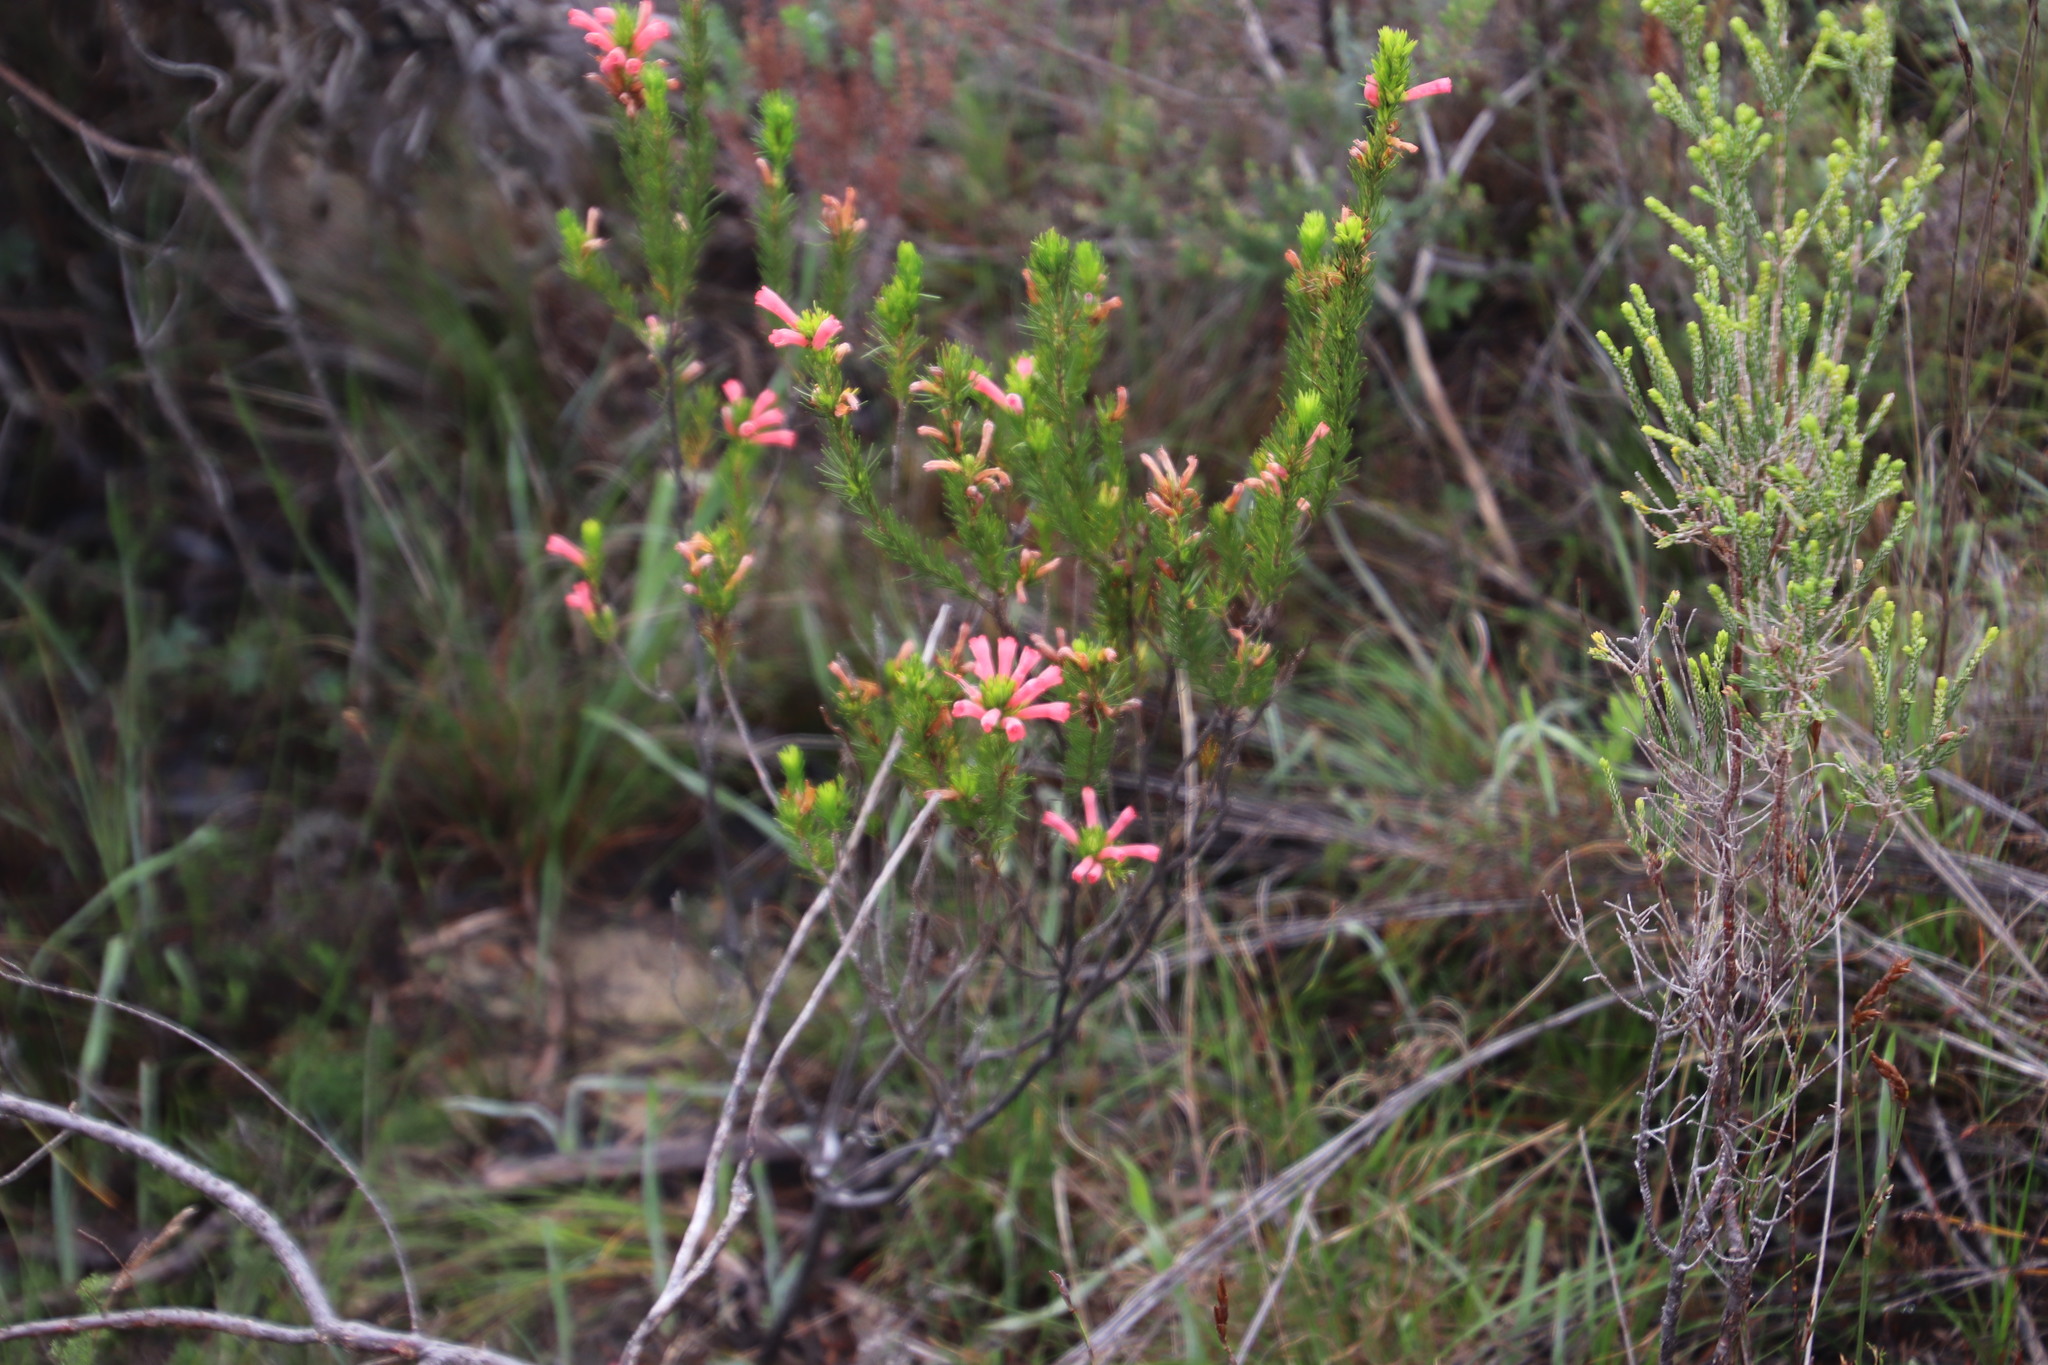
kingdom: Plantae
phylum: Tracheophyta
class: Magnoliopsida
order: Ericales
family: Ericaceae
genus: Erica
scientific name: Erica vestita
